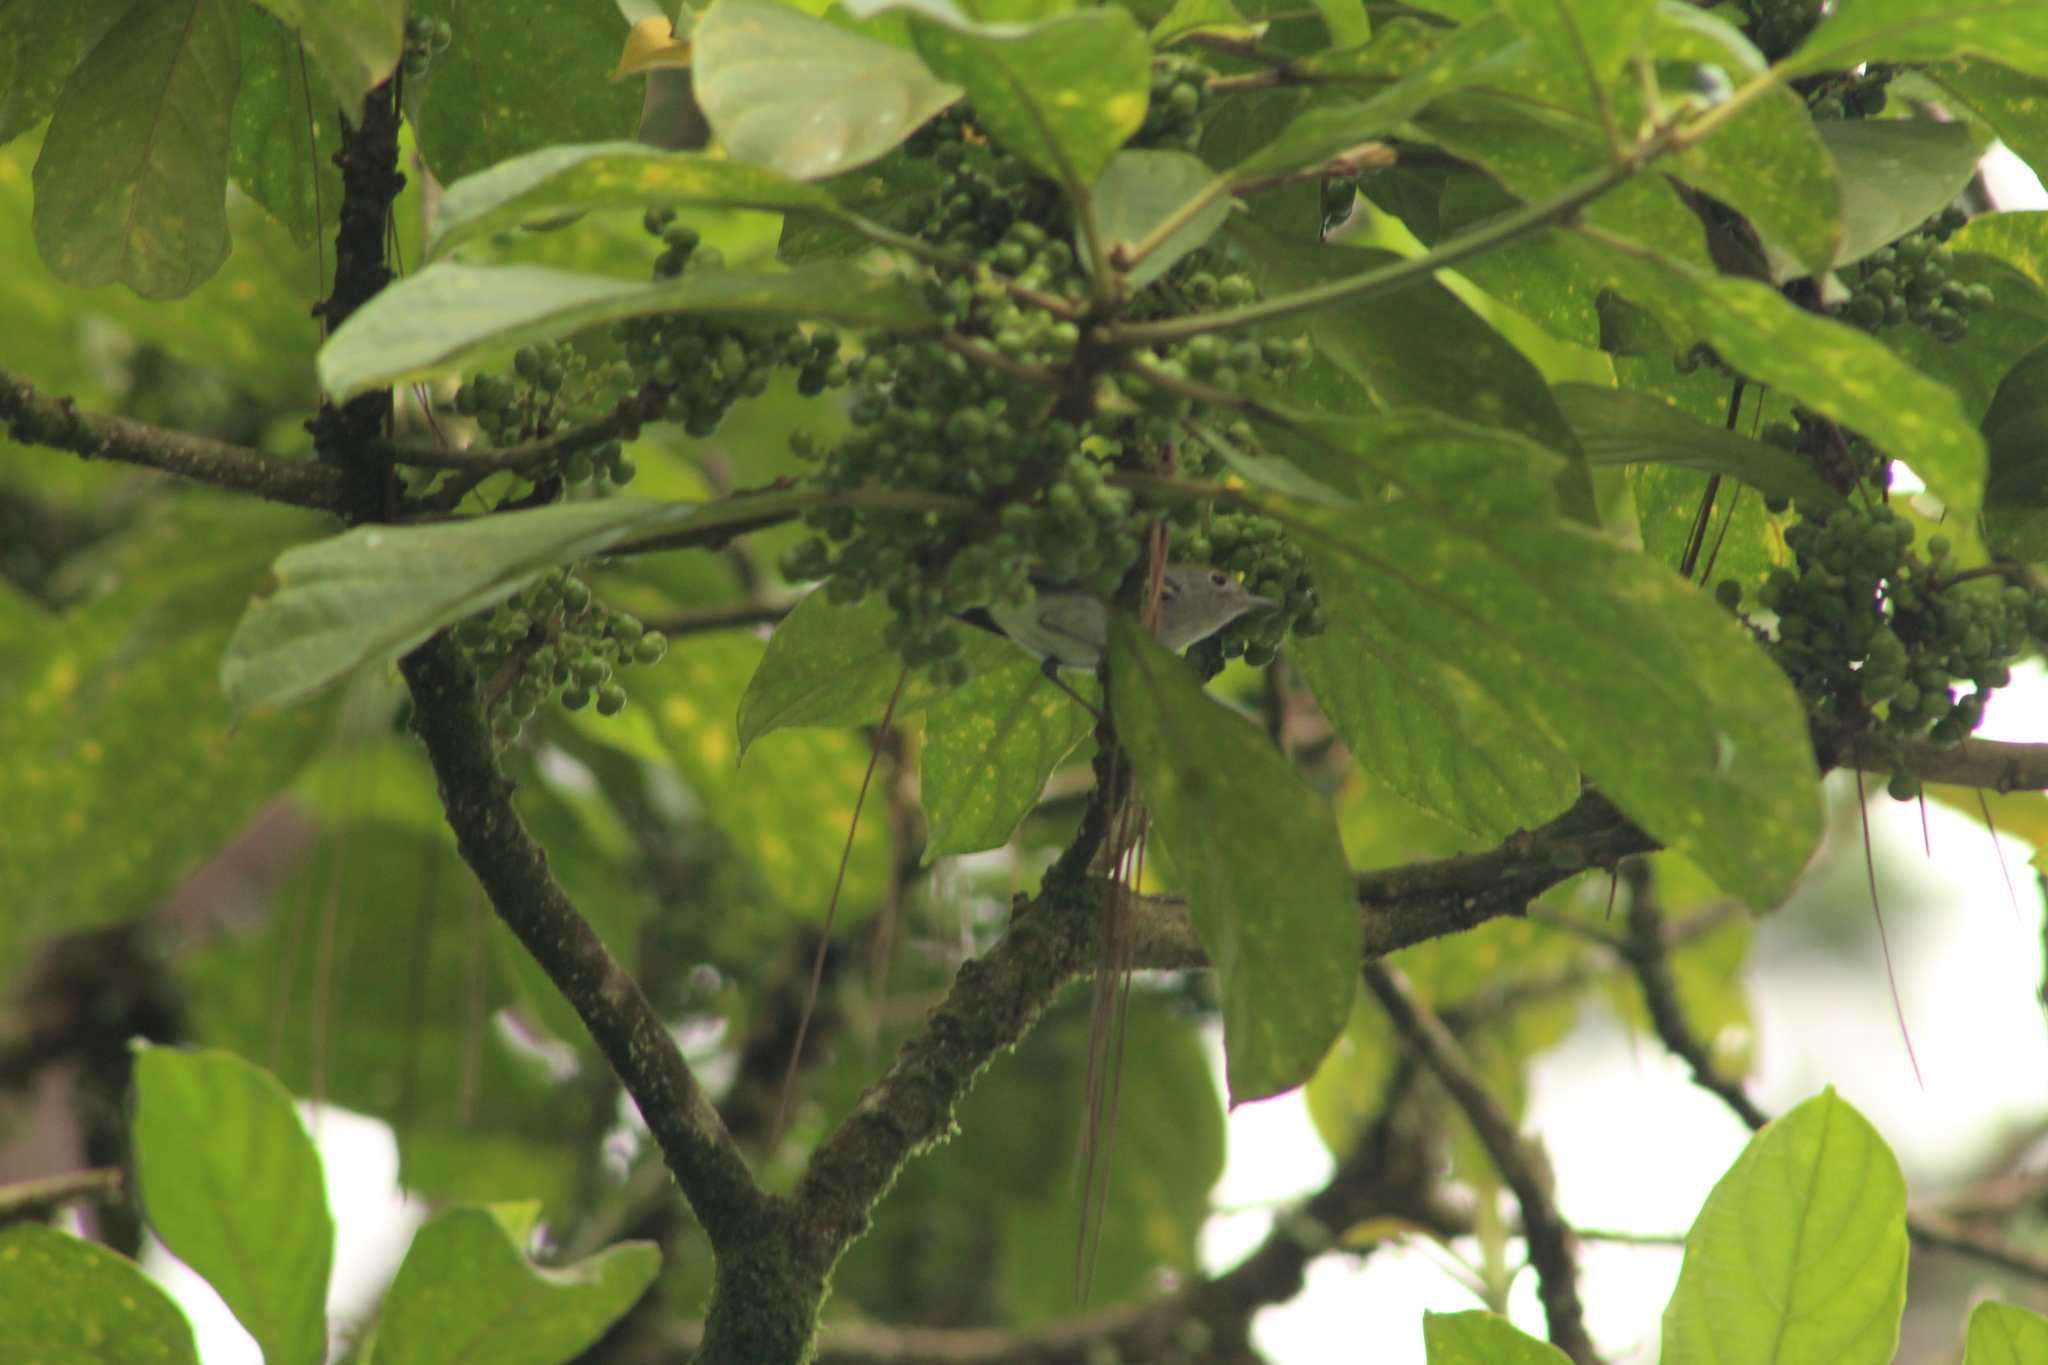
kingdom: Animalia
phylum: Chordata
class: Aves
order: Passeriformes
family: Parulidae
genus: Setophaga
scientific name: Setophaga pensylvanica
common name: Chestnut-sided warbler
